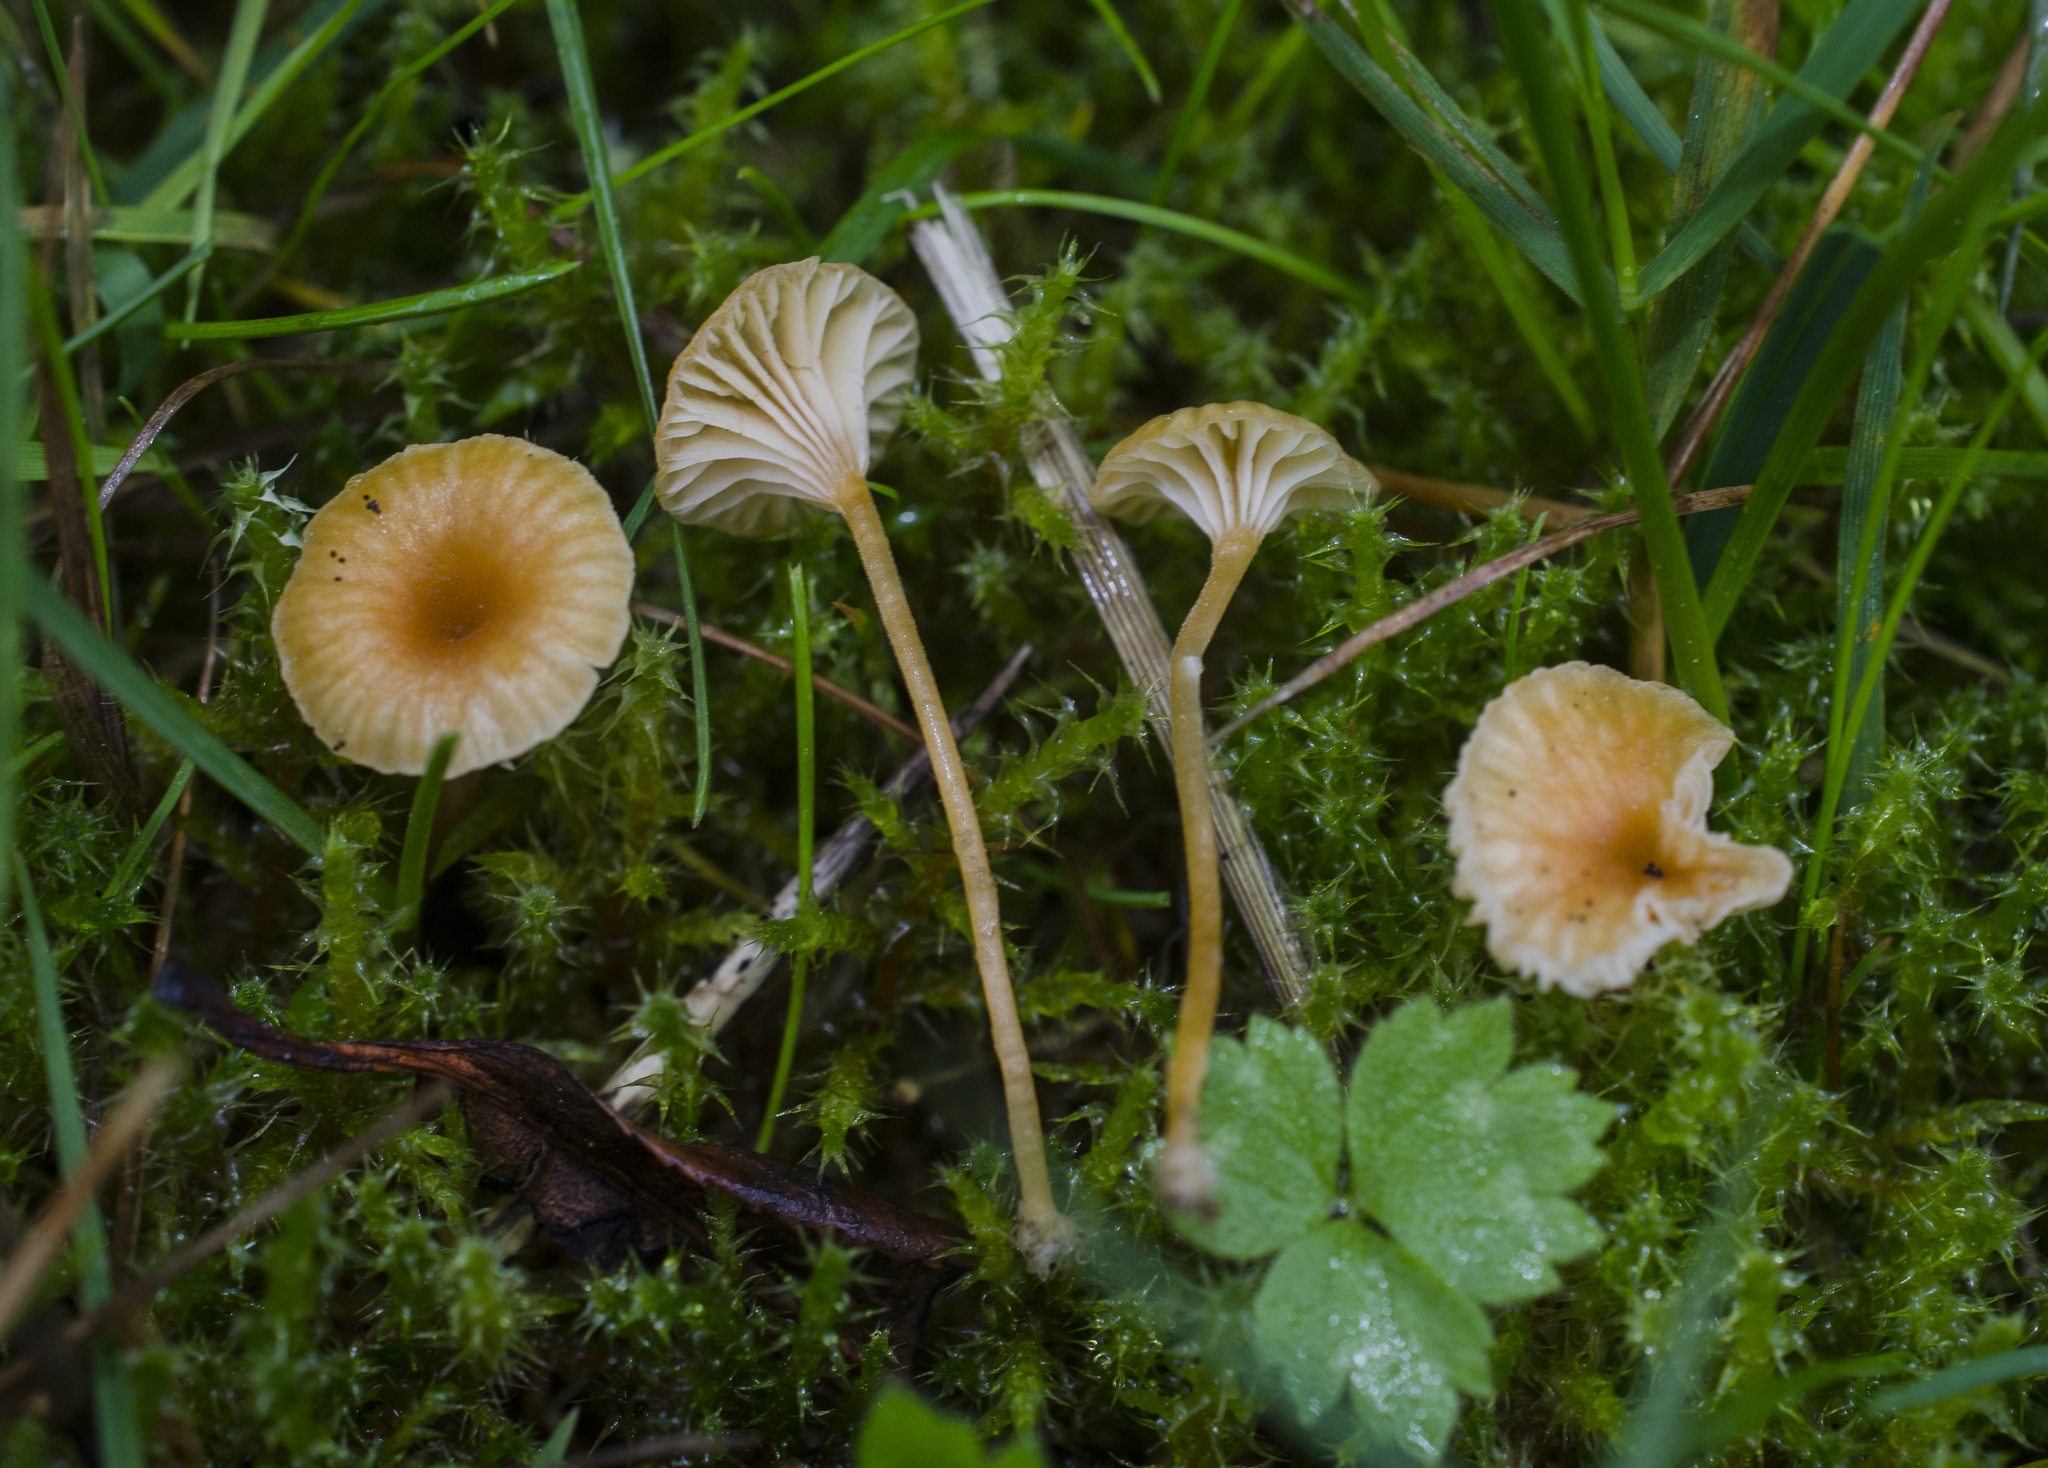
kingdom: Fungi
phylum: Basidiomycota
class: Agaricomycetes
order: Hymenochaetales
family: Rickenellaceae
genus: Rickenella
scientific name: Rickenella fibula
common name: Orange mosscap
